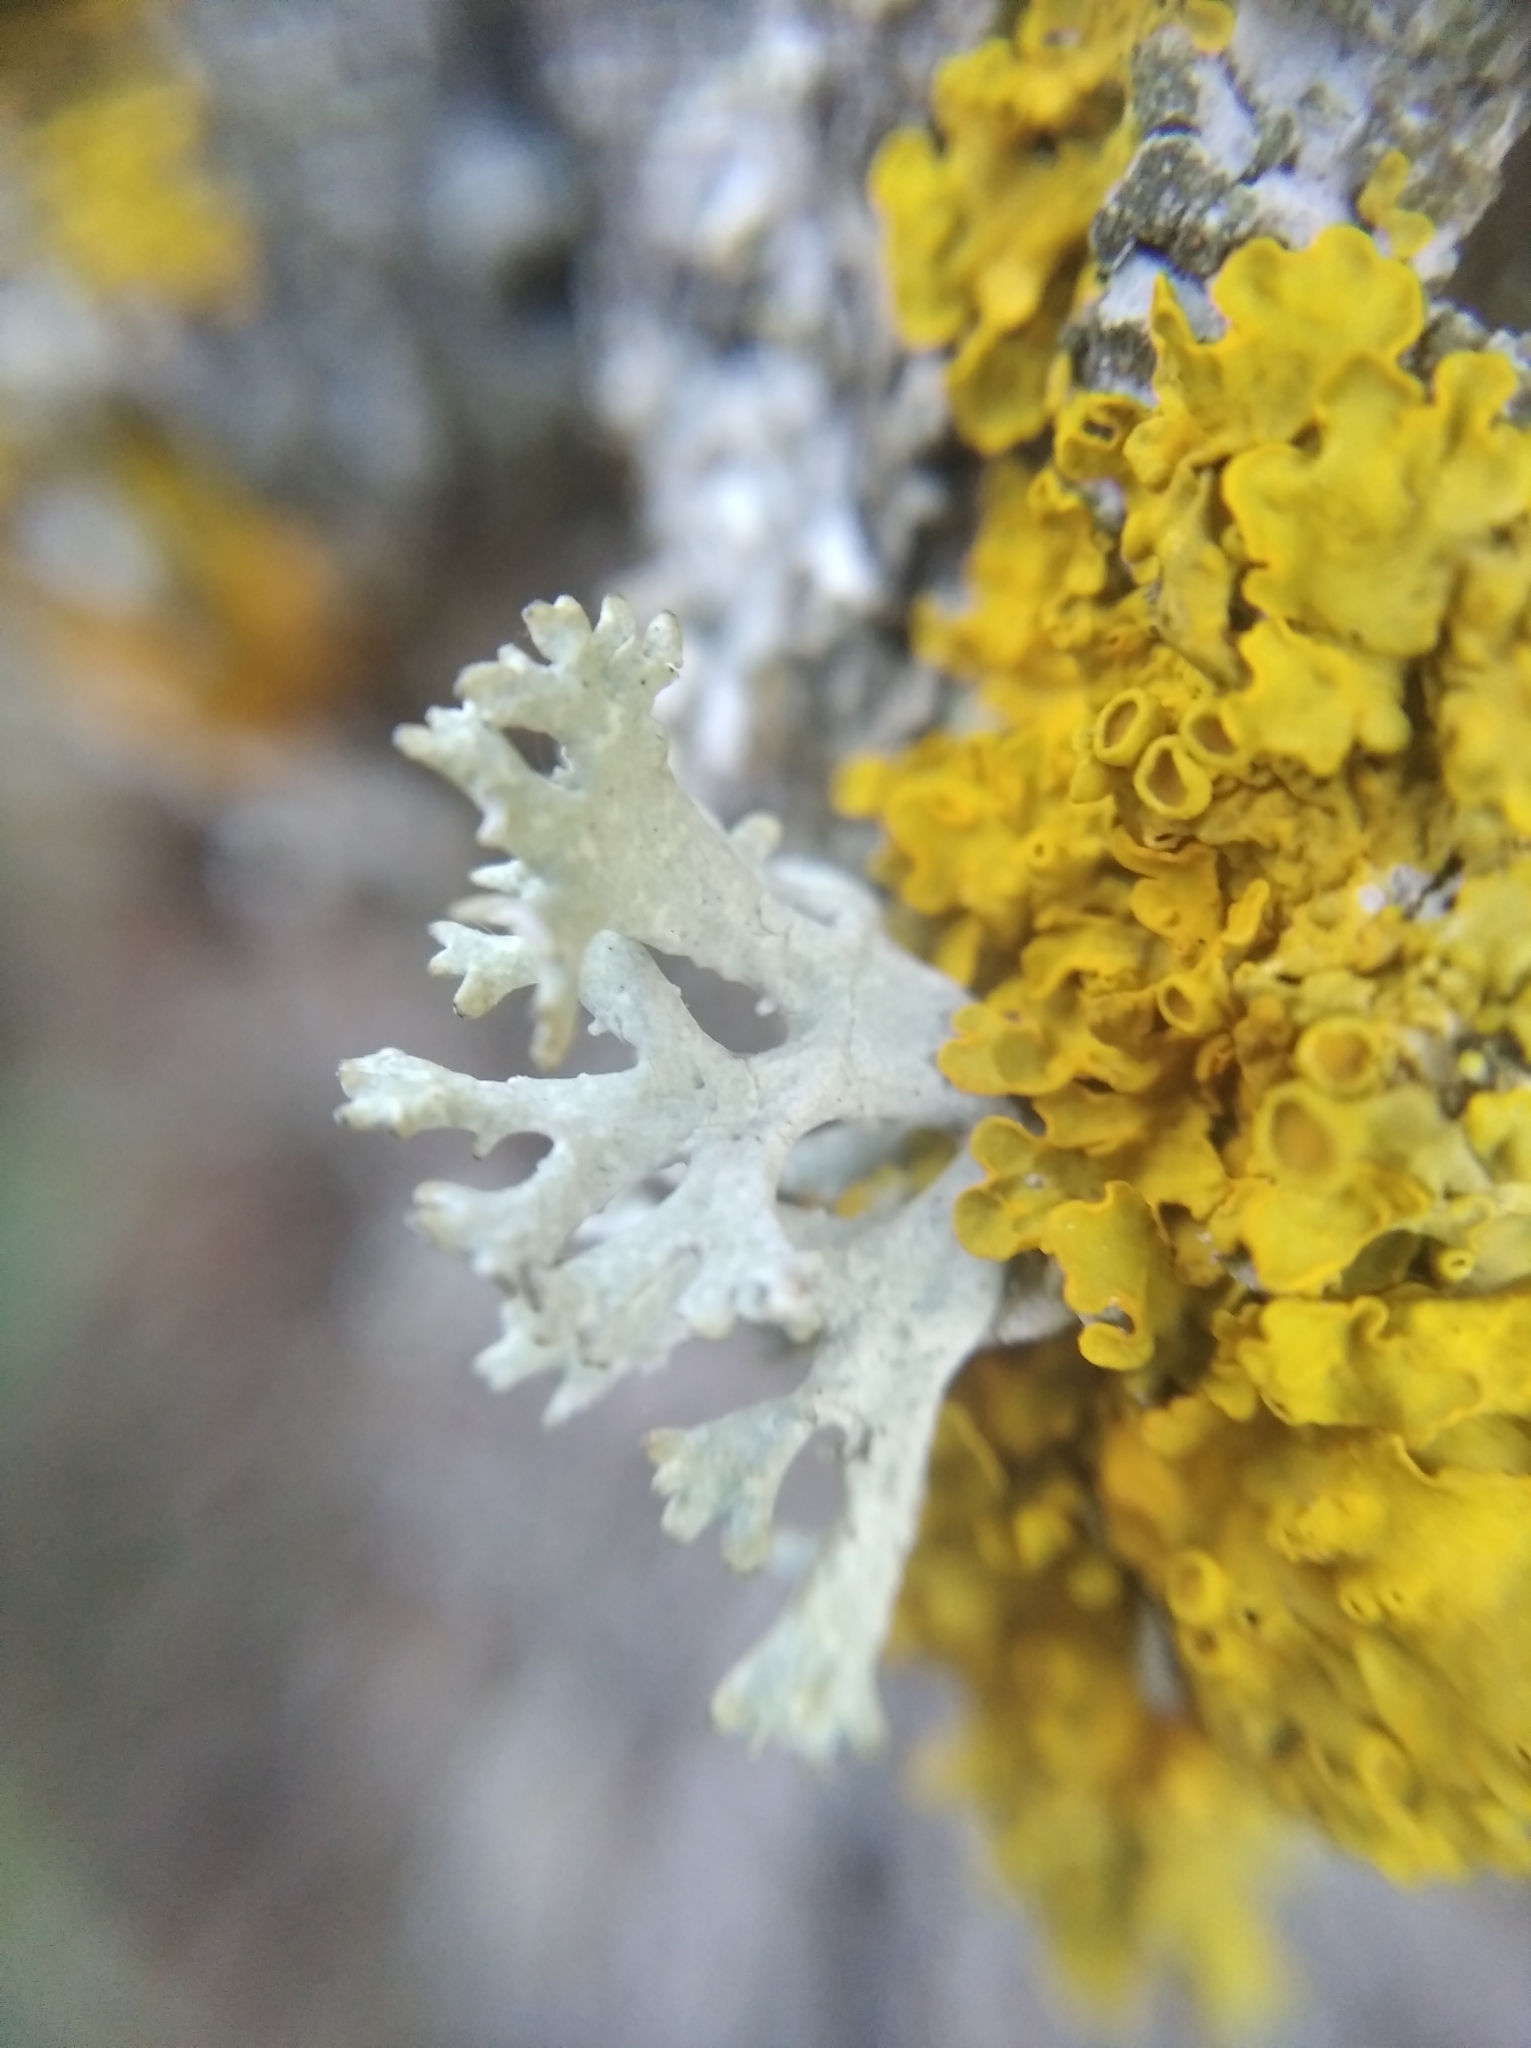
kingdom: Fungi
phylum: Ascomycota
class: Lecanoromycetes
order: Lecanorales
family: Parmeliaceae
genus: Evernia
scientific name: Evernia prunastri
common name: Oak moss
